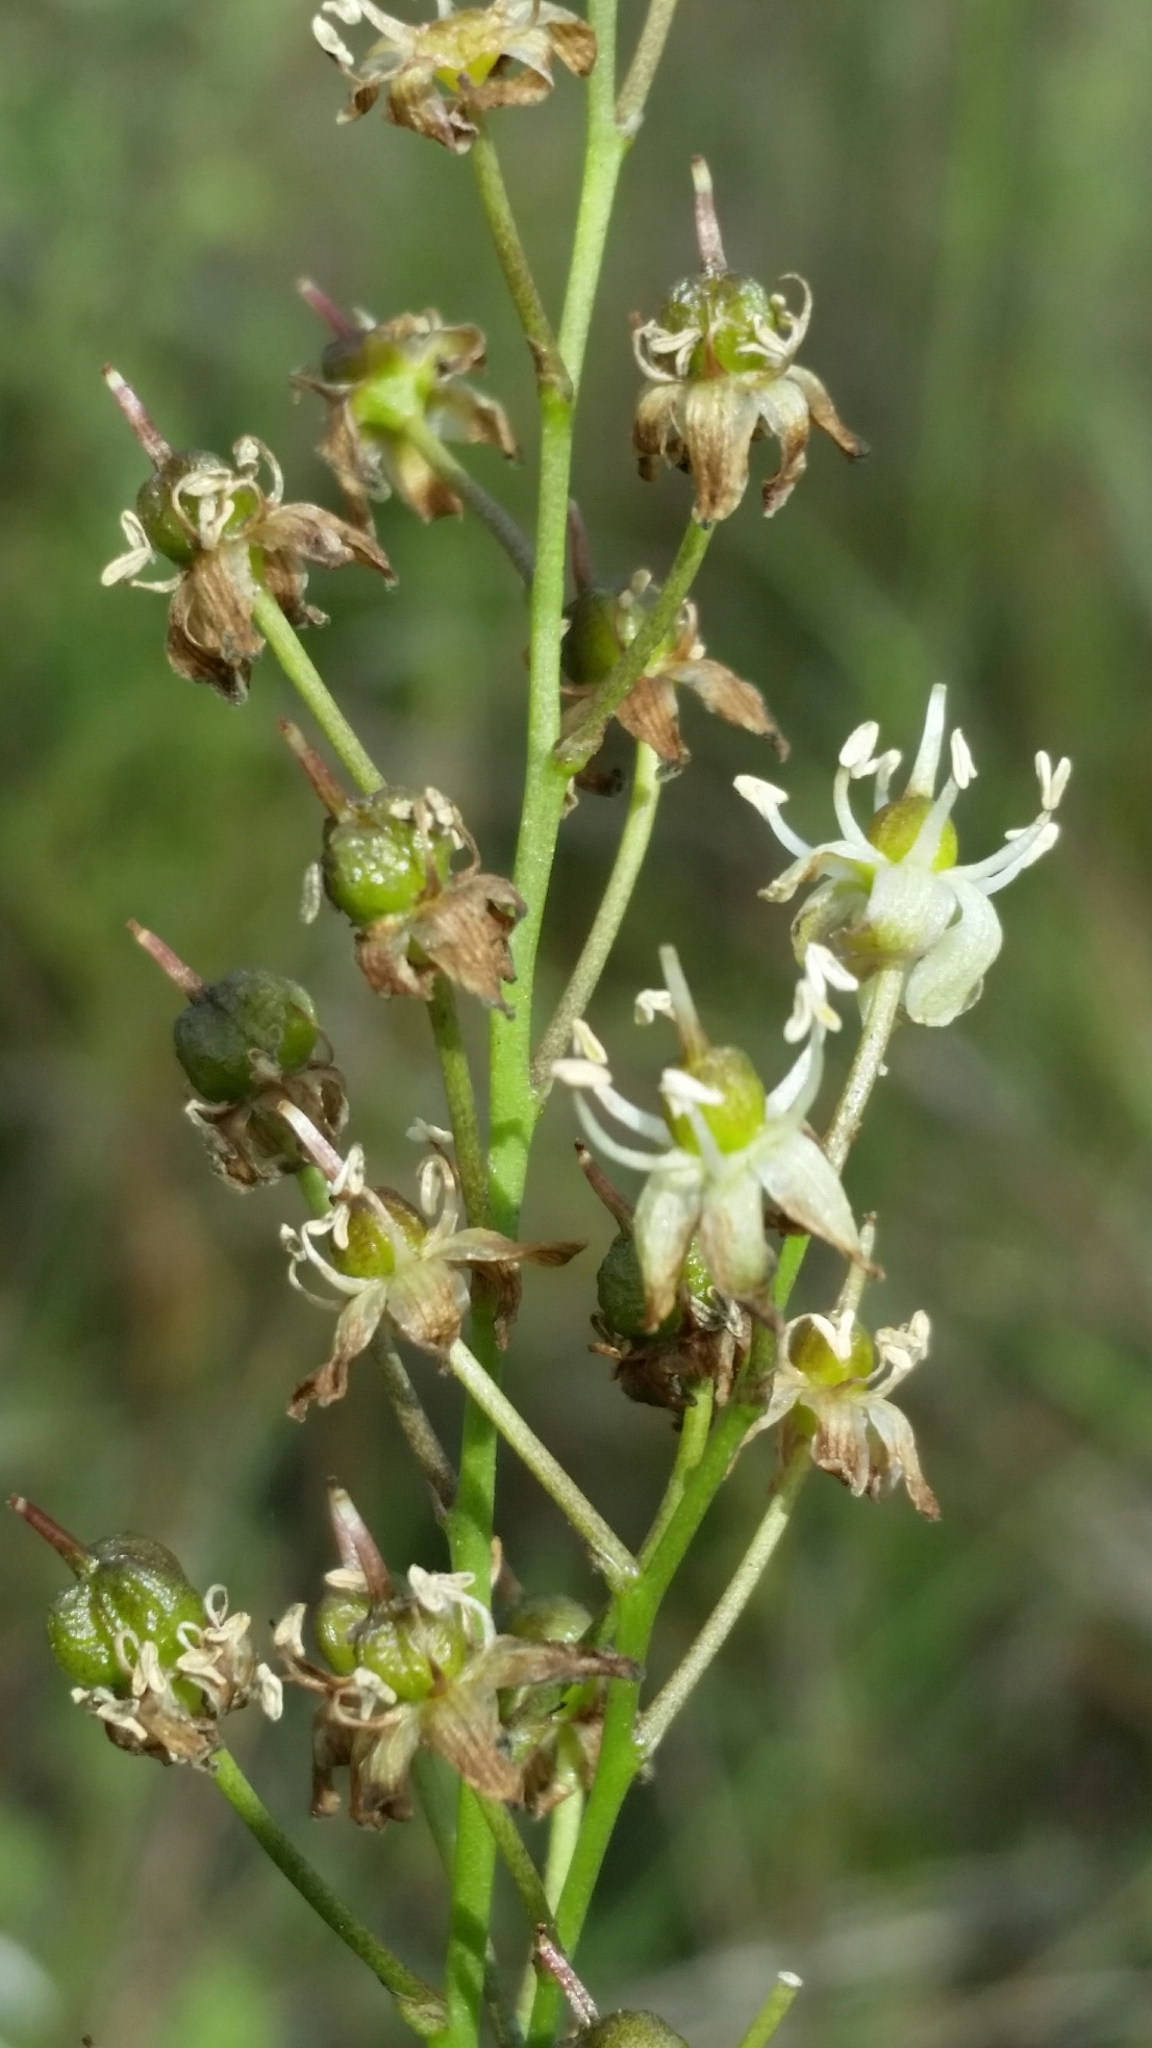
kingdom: Plantae
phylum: Tracheophyta
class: Liliopsida
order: Asparagales
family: Asparagaceae
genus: Schoenolirion
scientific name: Schoenolirion albiflorum
